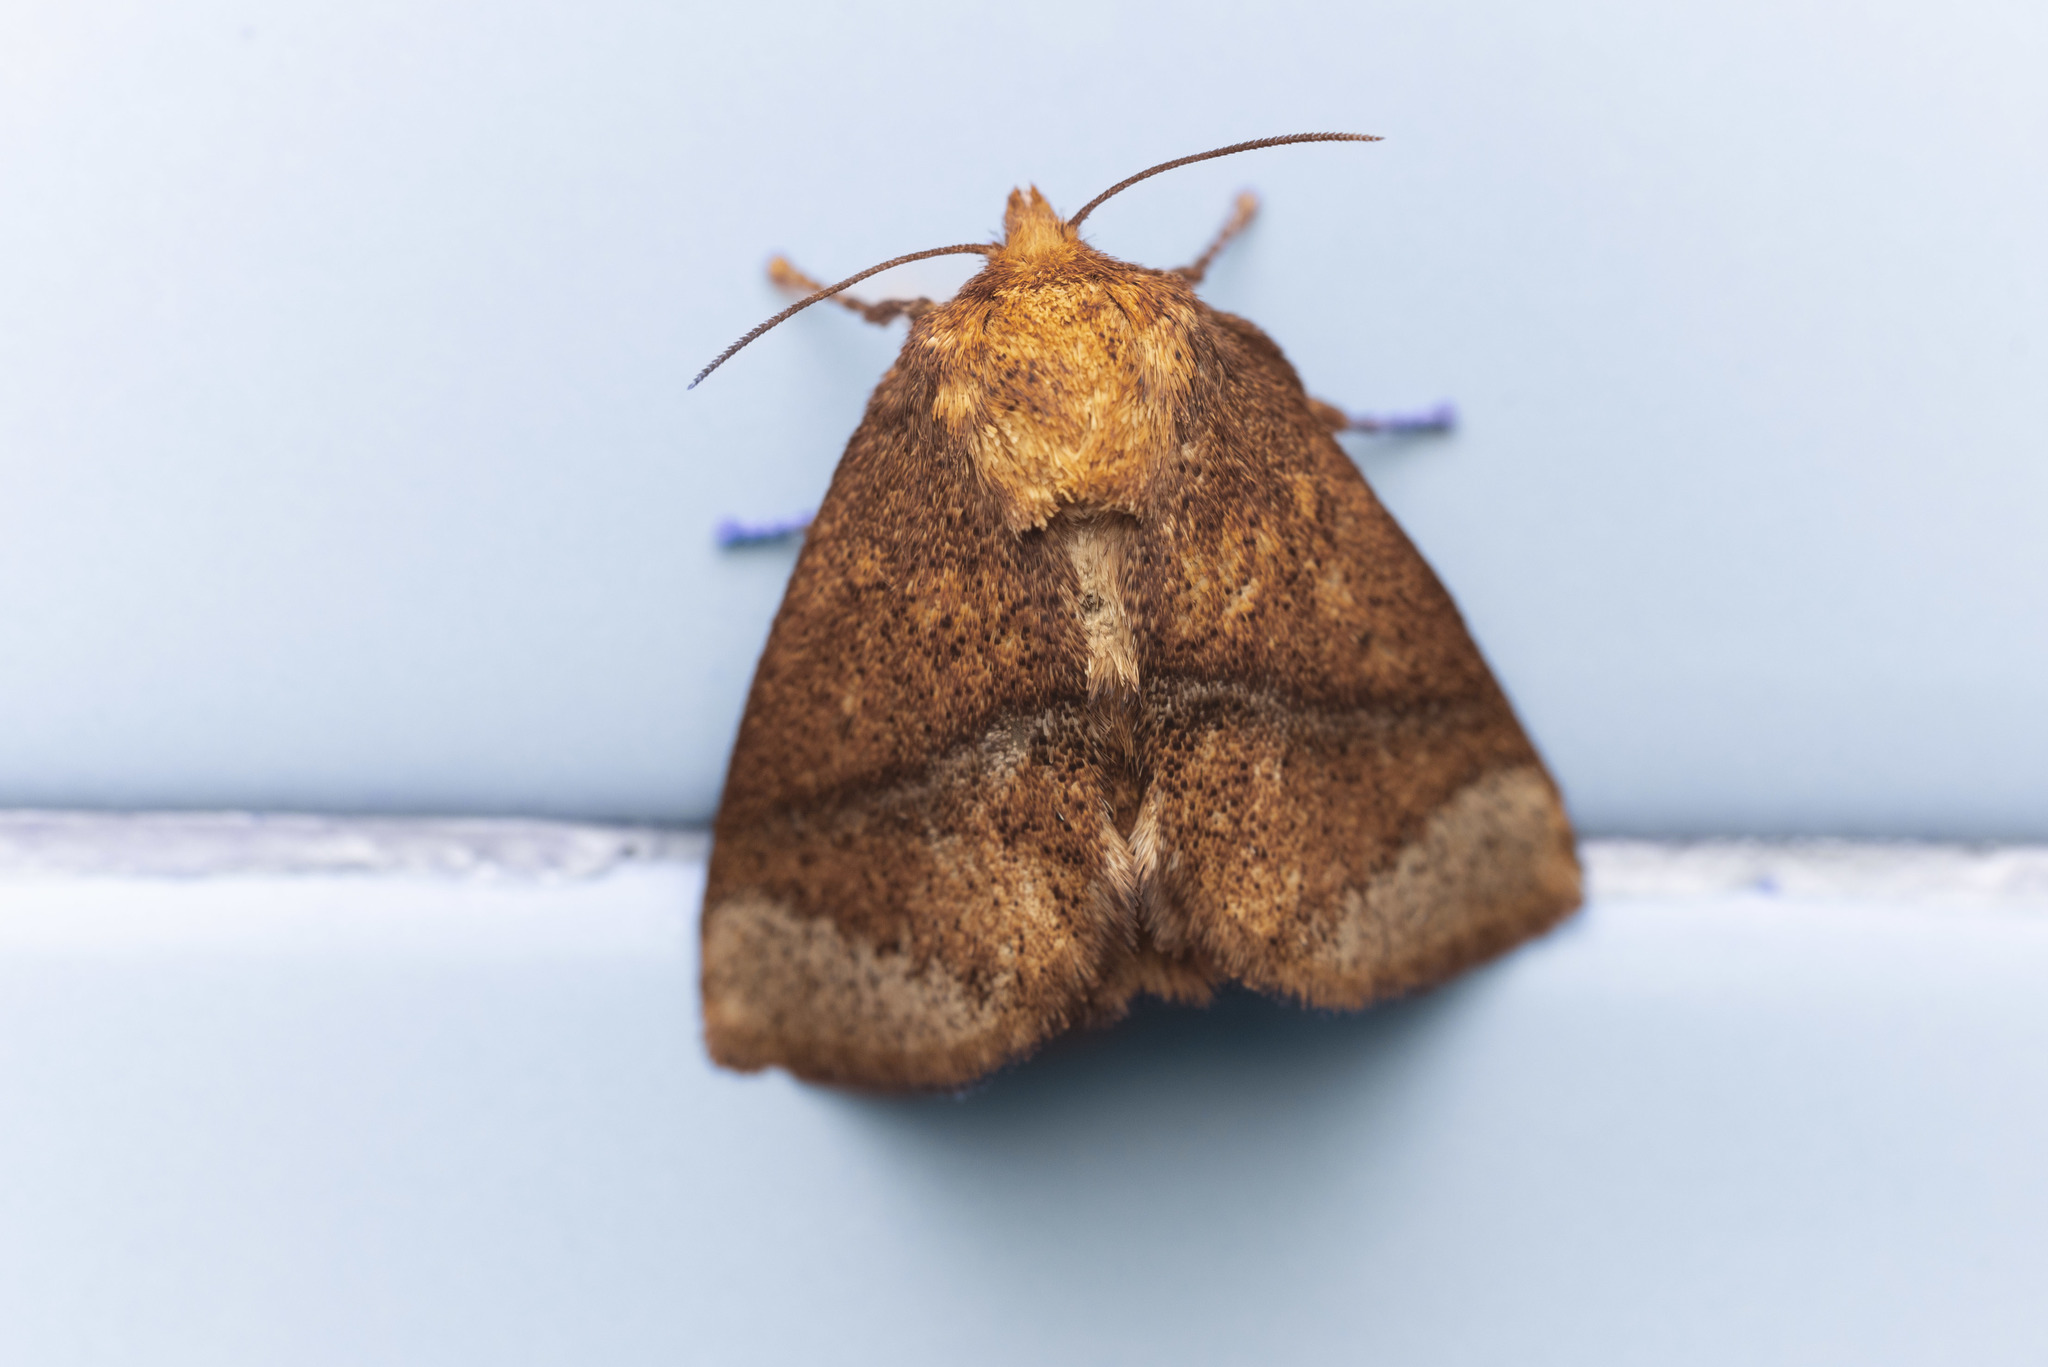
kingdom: Animalia
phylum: Arthropoda
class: Insecta
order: Lepidoptera
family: Limacodidae
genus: Birthamula
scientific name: Birthamula rufa
